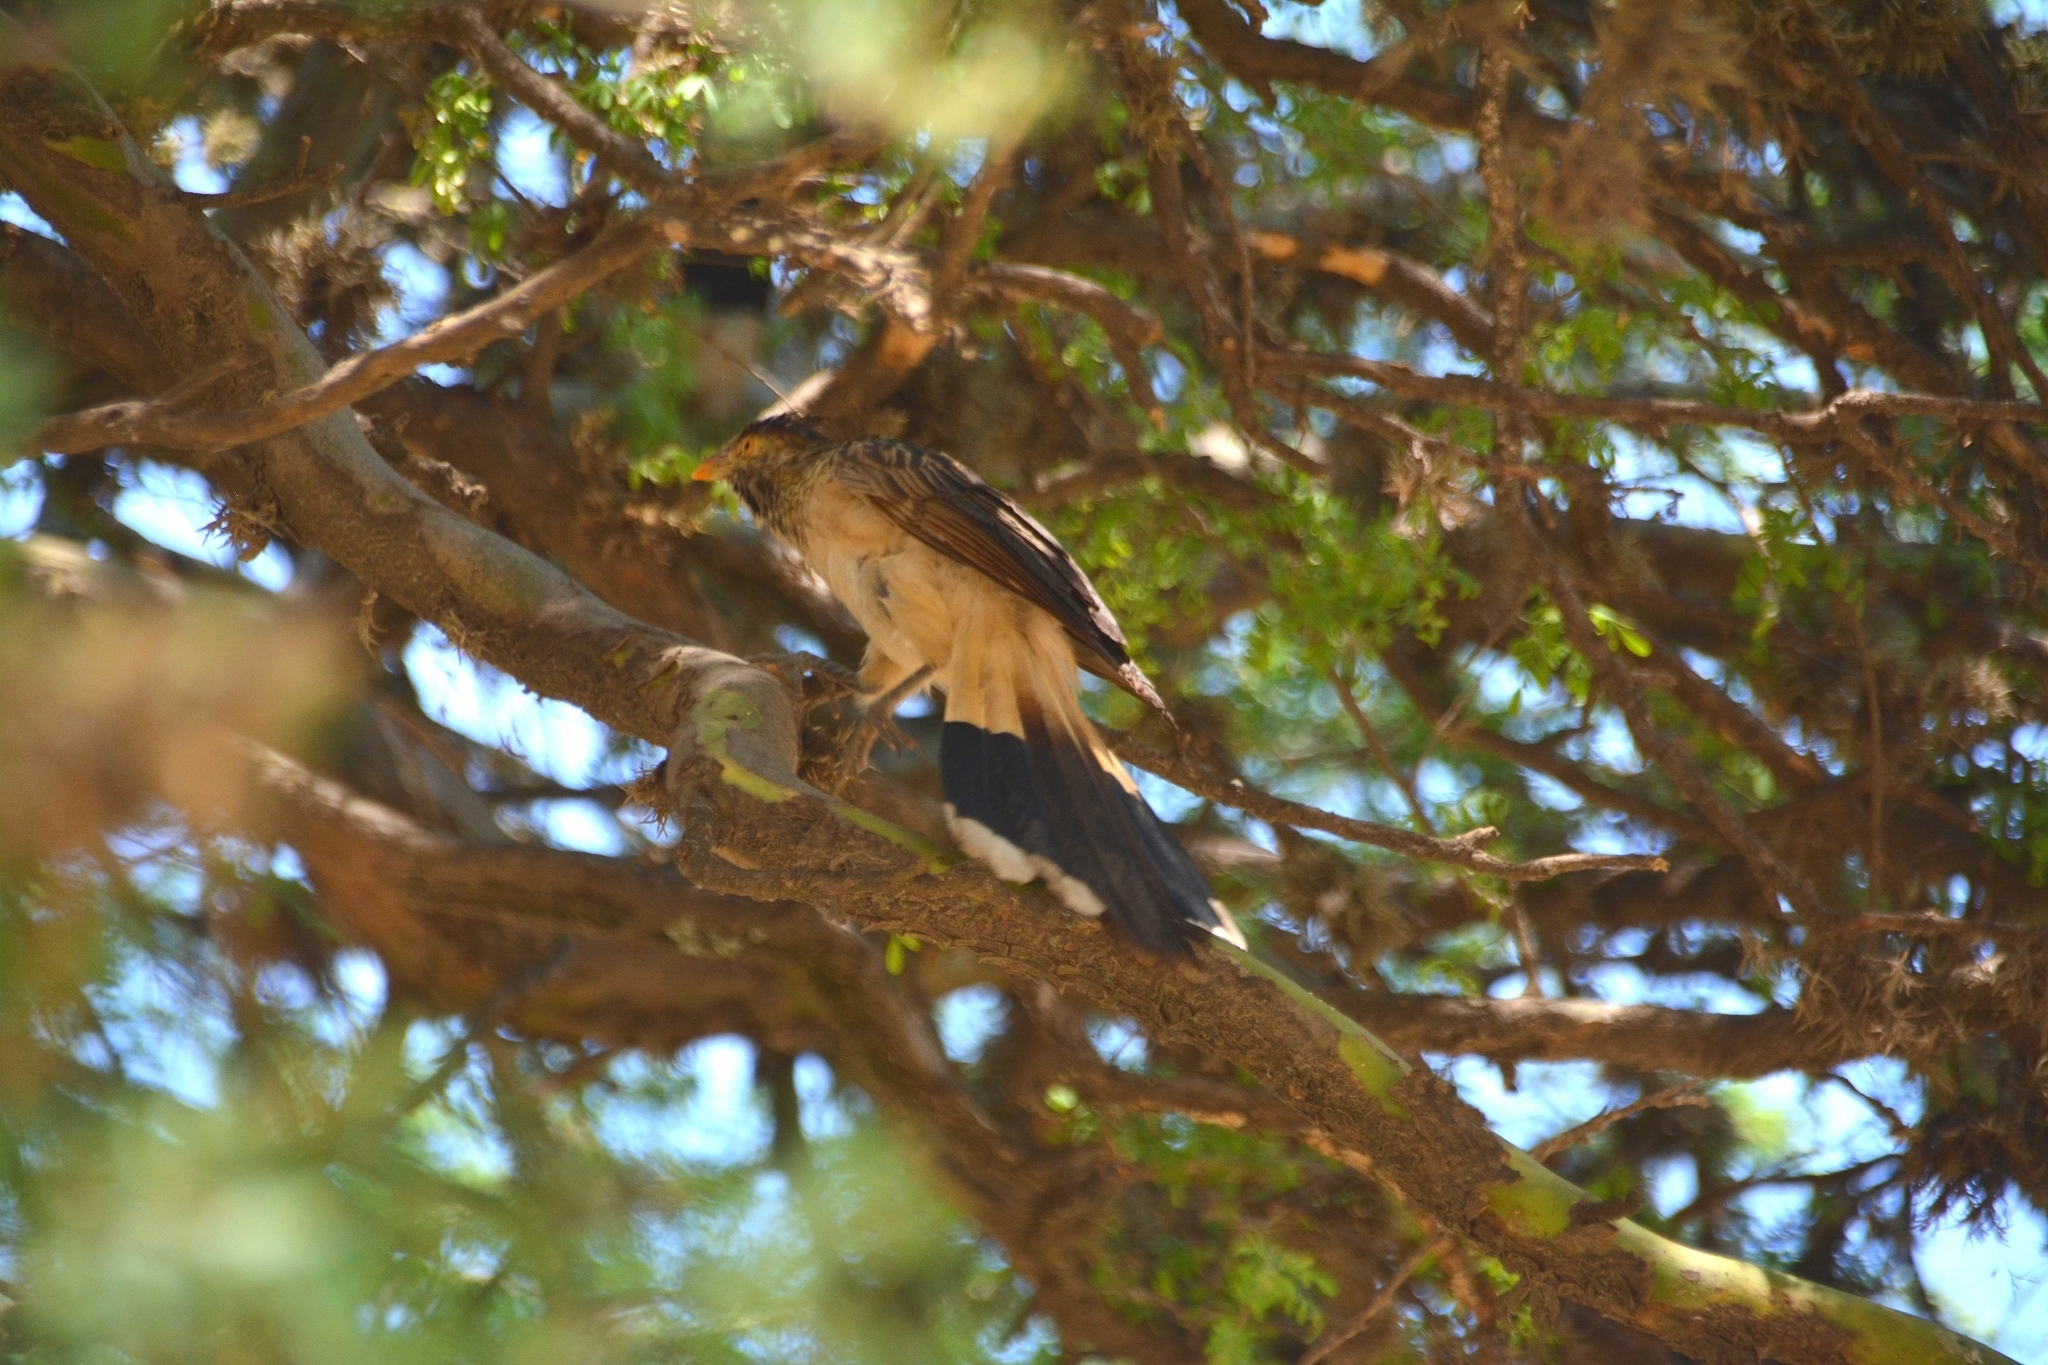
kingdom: Animalia
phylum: Chordata
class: Aves
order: Cuculiformes
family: Cuculidae
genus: Guira
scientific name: Guira guira
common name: Guira cuckoo
